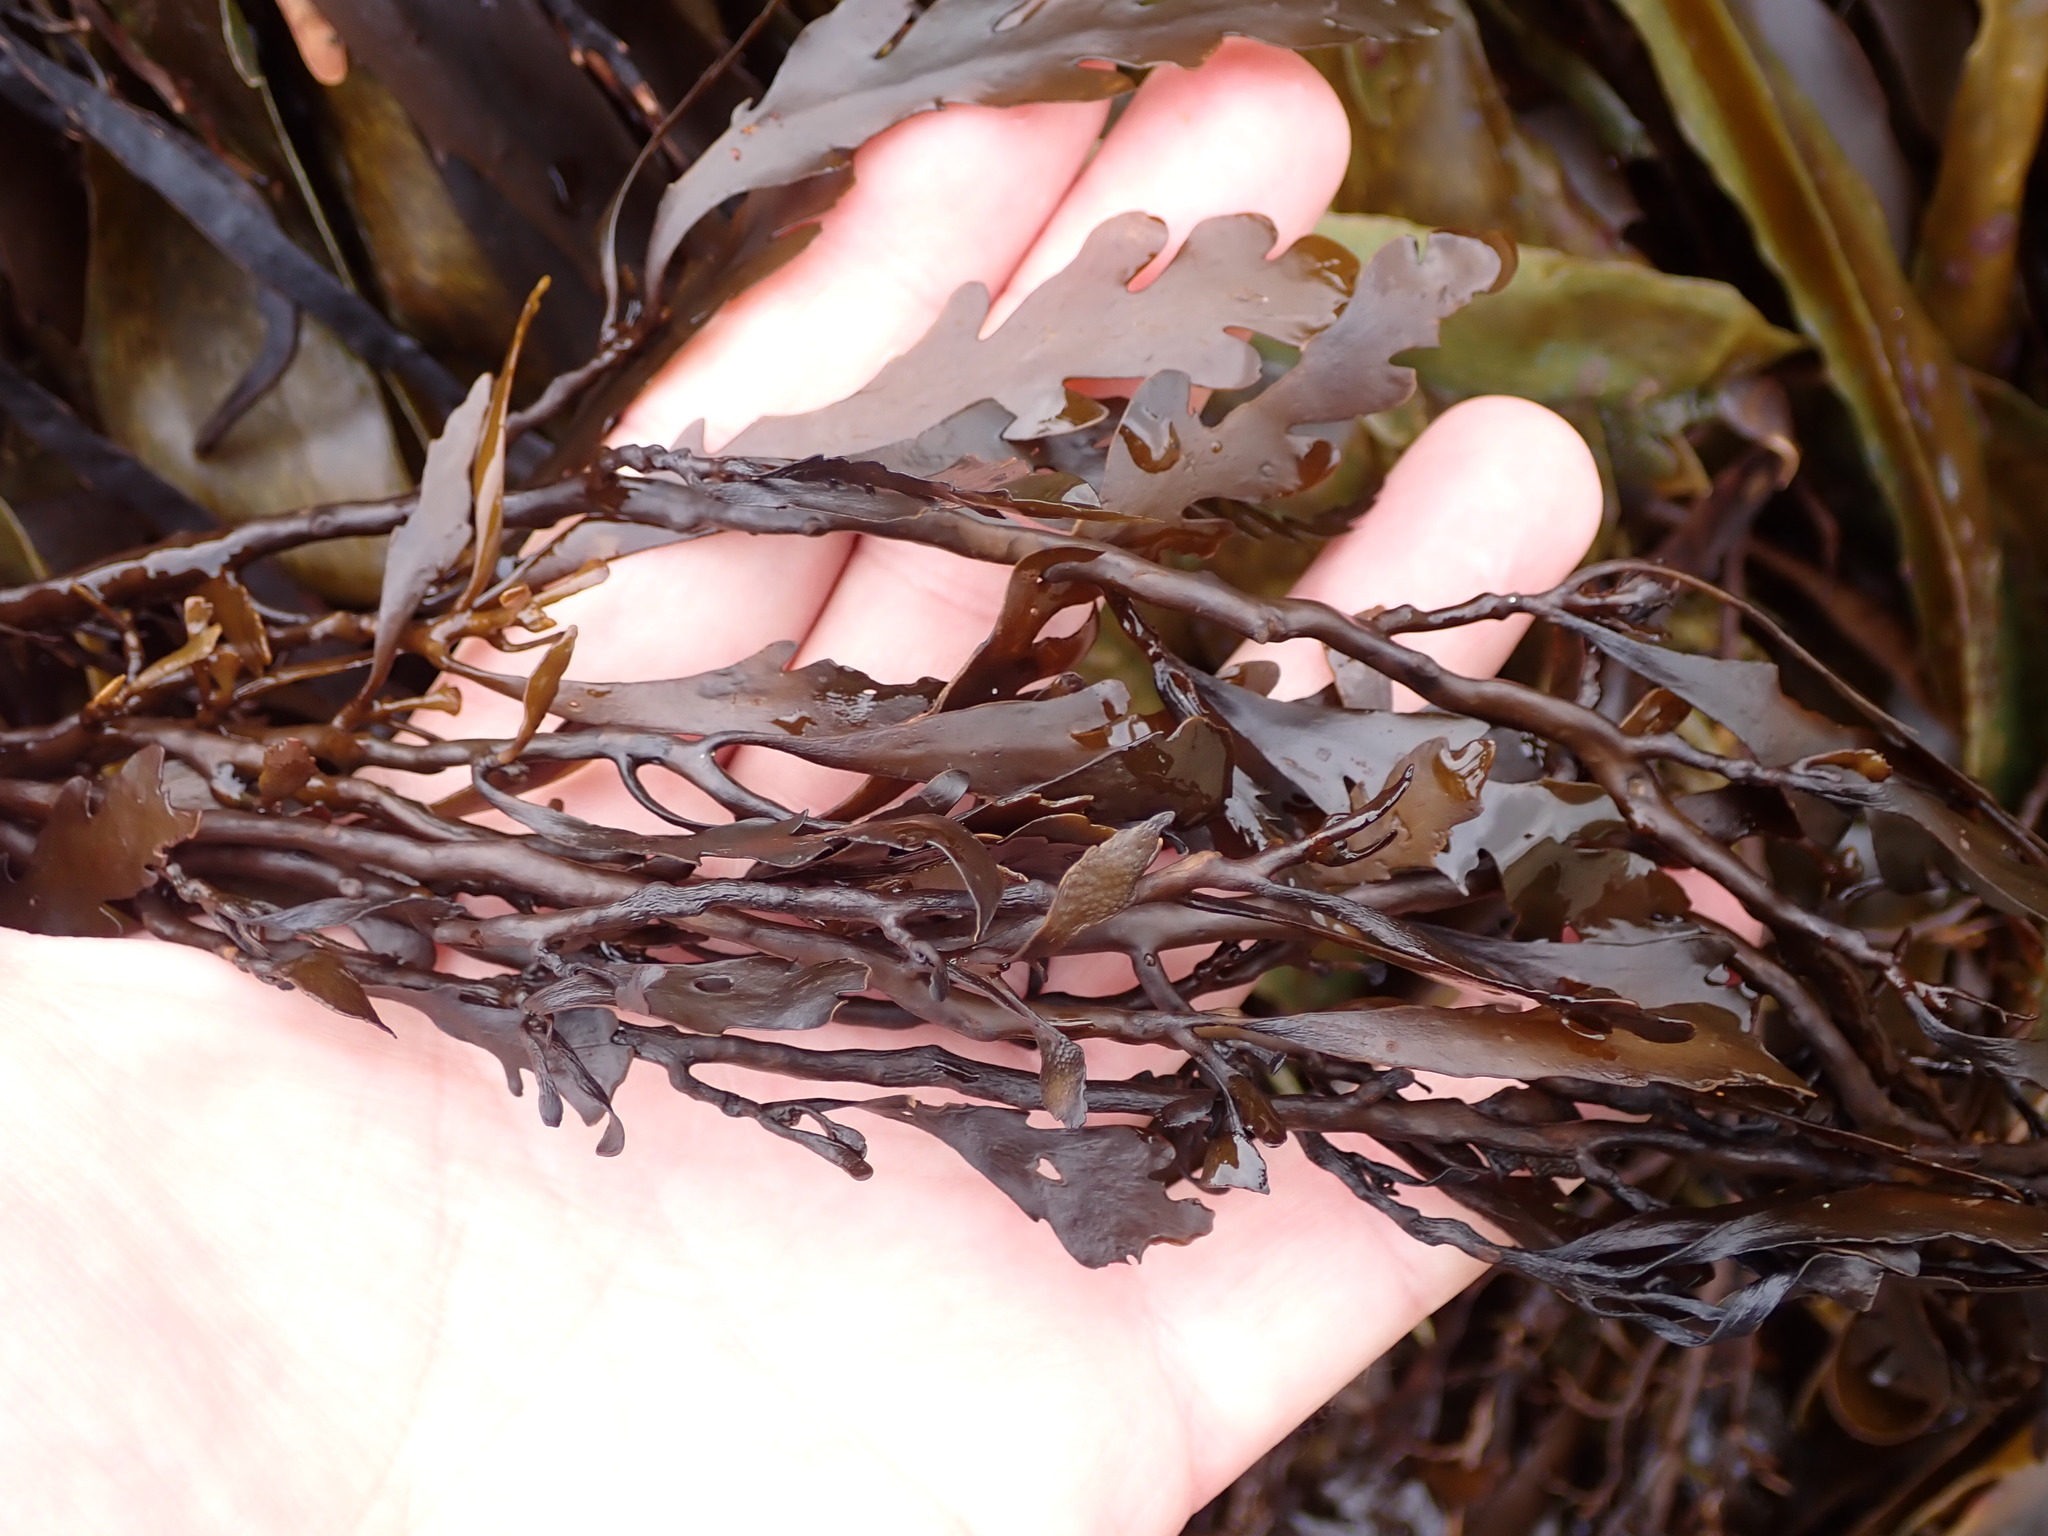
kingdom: Chromista
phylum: Ochrophyta
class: Phaeophyceae
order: Fucales
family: Sargassaceae
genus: Landsburgia
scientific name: Landsburgia quercifolia
